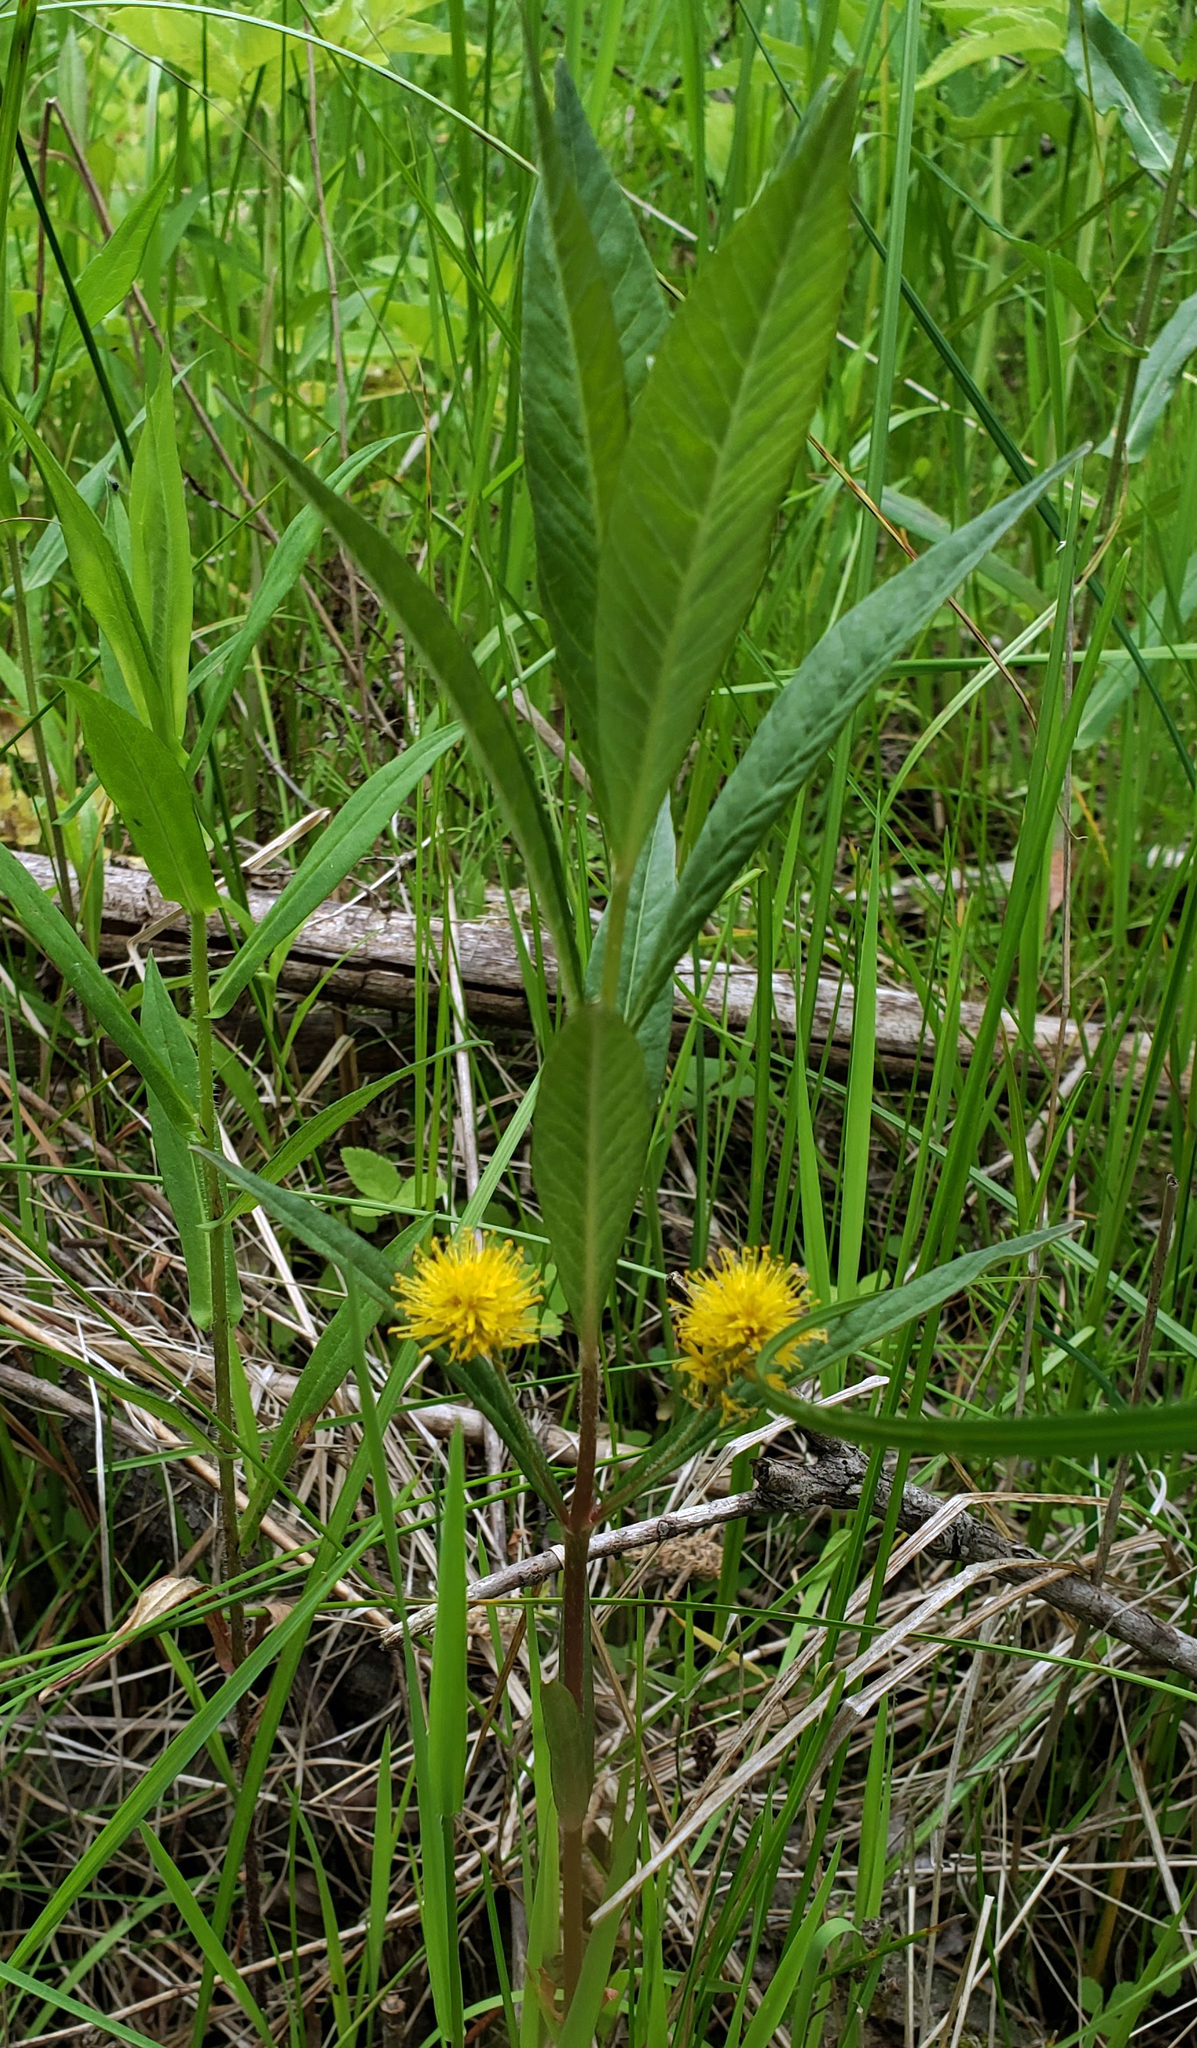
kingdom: Plantae
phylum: Tracheophyta
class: Magnoliopsida
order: Ericales
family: Primulaceae
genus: Lysimachia
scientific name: Lysimachia thyrsiflora
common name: Tufted loosestrife
